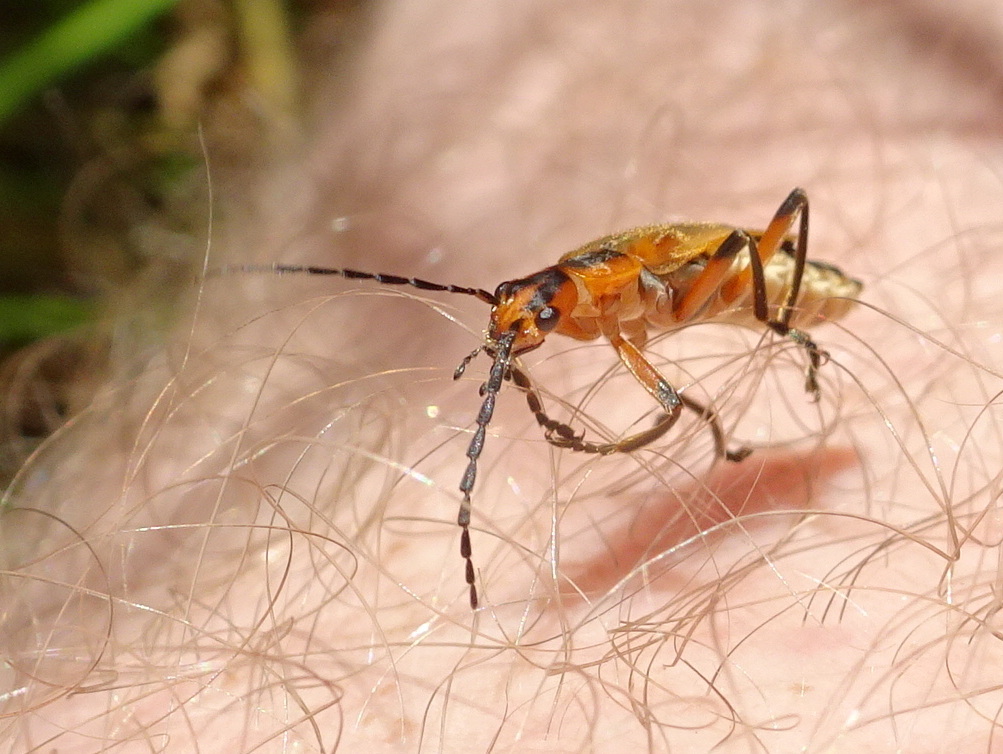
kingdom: Animalia
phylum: Arthropoda
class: Insecta
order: Coleoptera
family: Cantharidae
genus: Chauliognathus
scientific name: Chauliognathus marginatus
